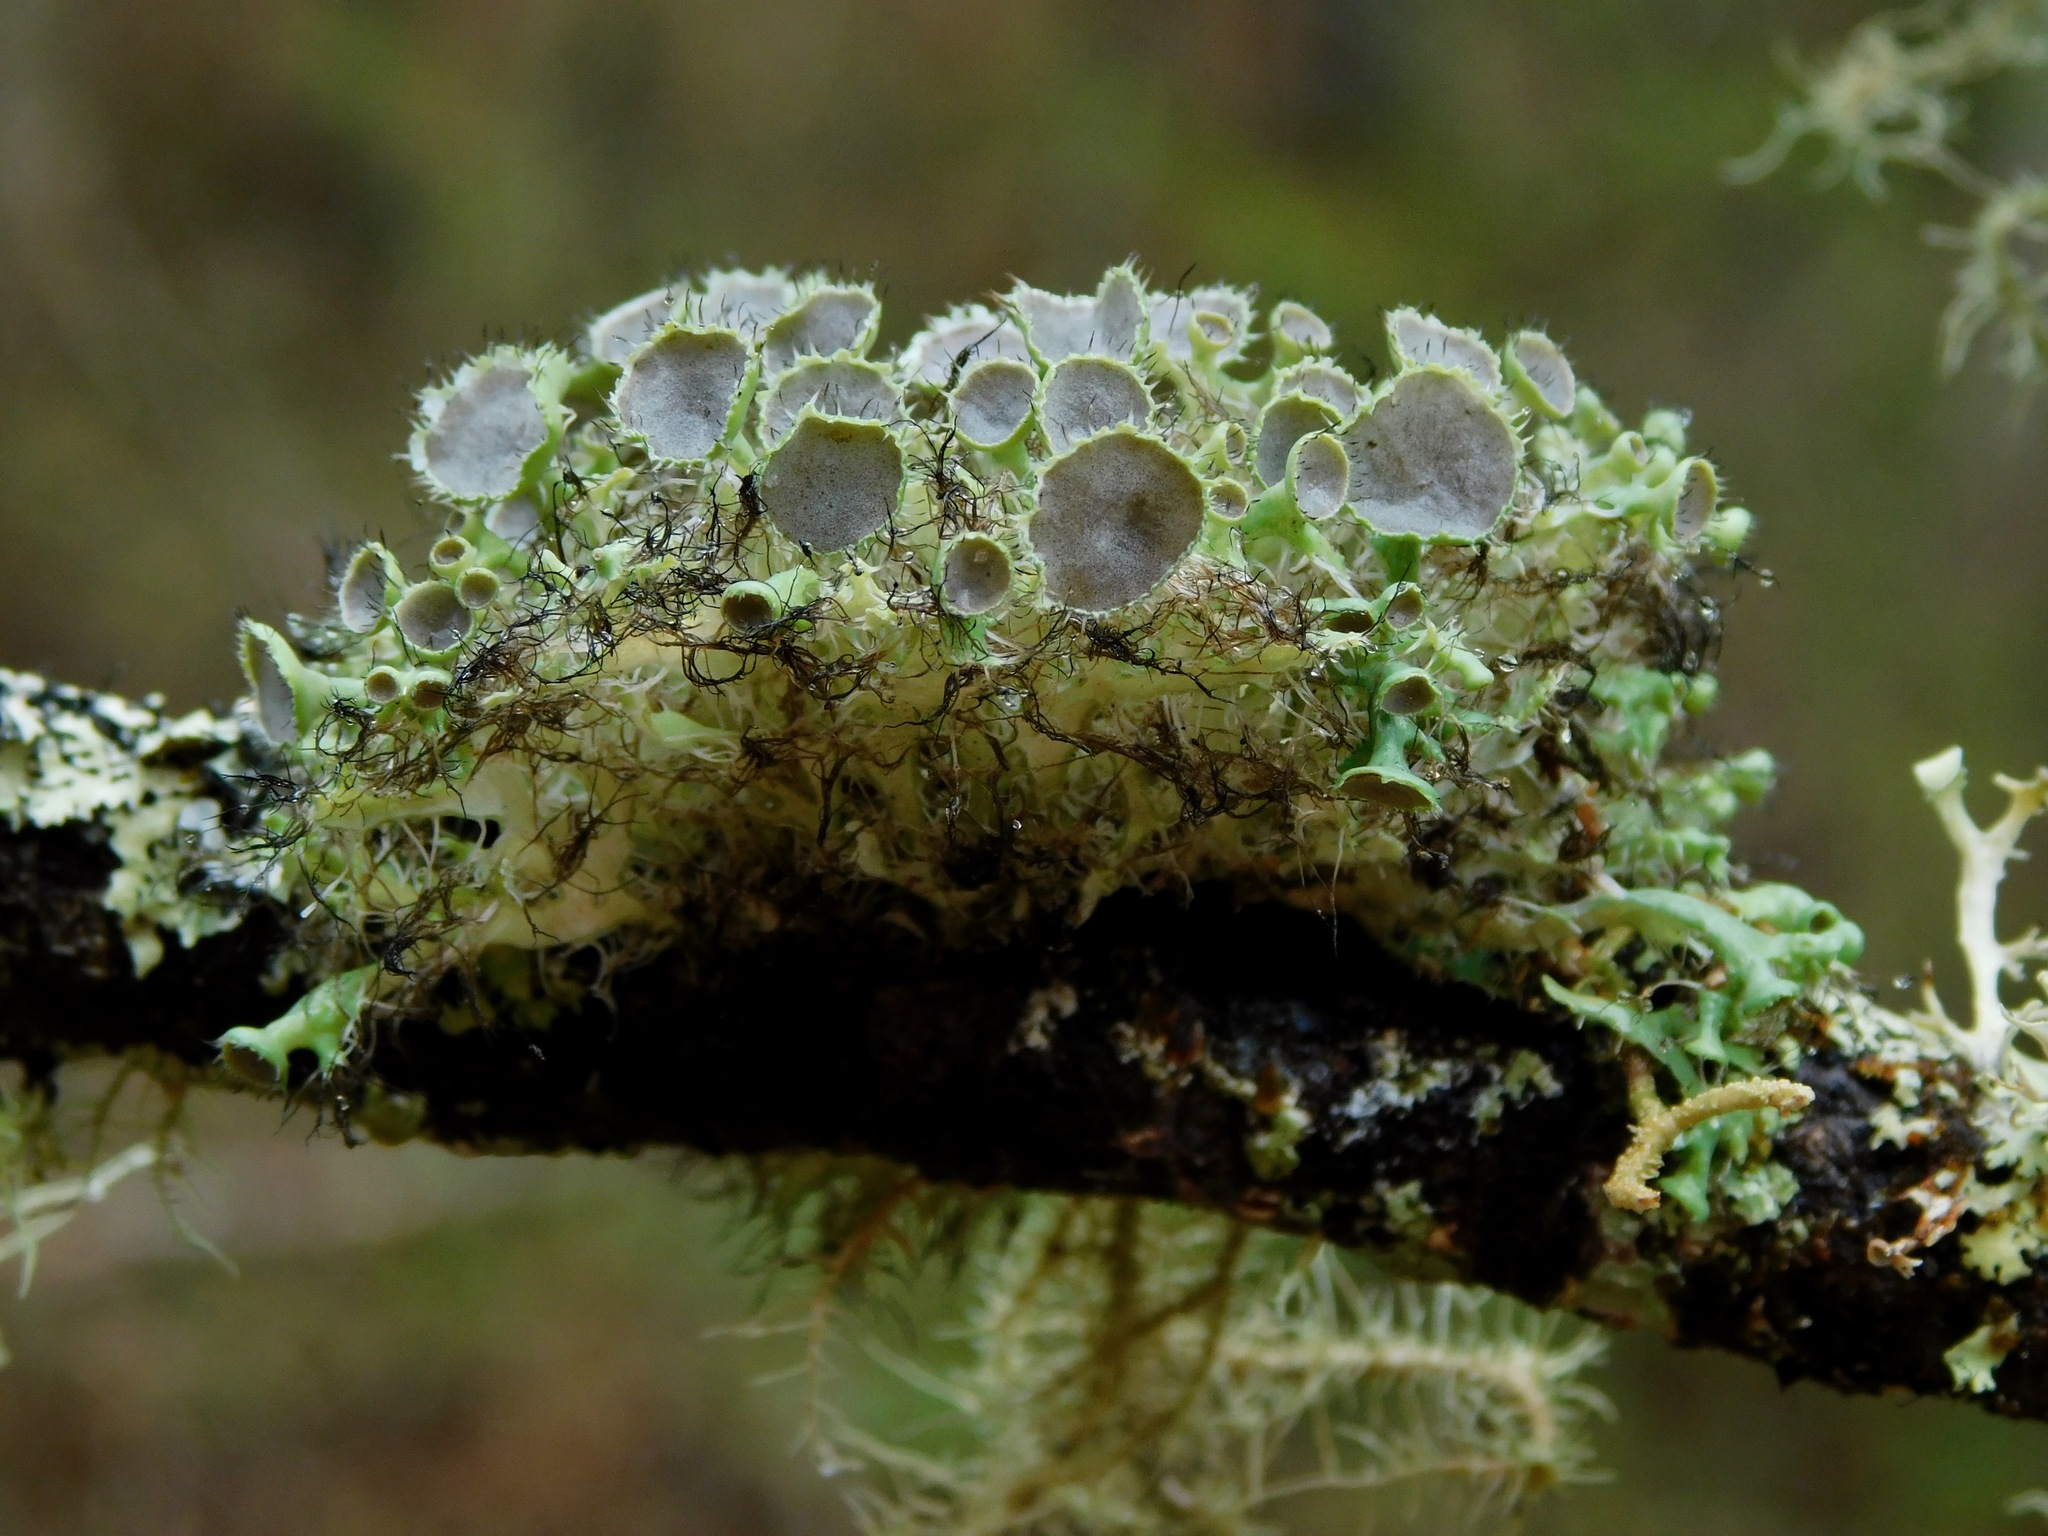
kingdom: Fungi
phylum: Ascomycota
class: Lecanoromycetes
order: Caliciales
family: Physciaceae
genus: Heterodermia
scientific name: Heterodermia echinata
